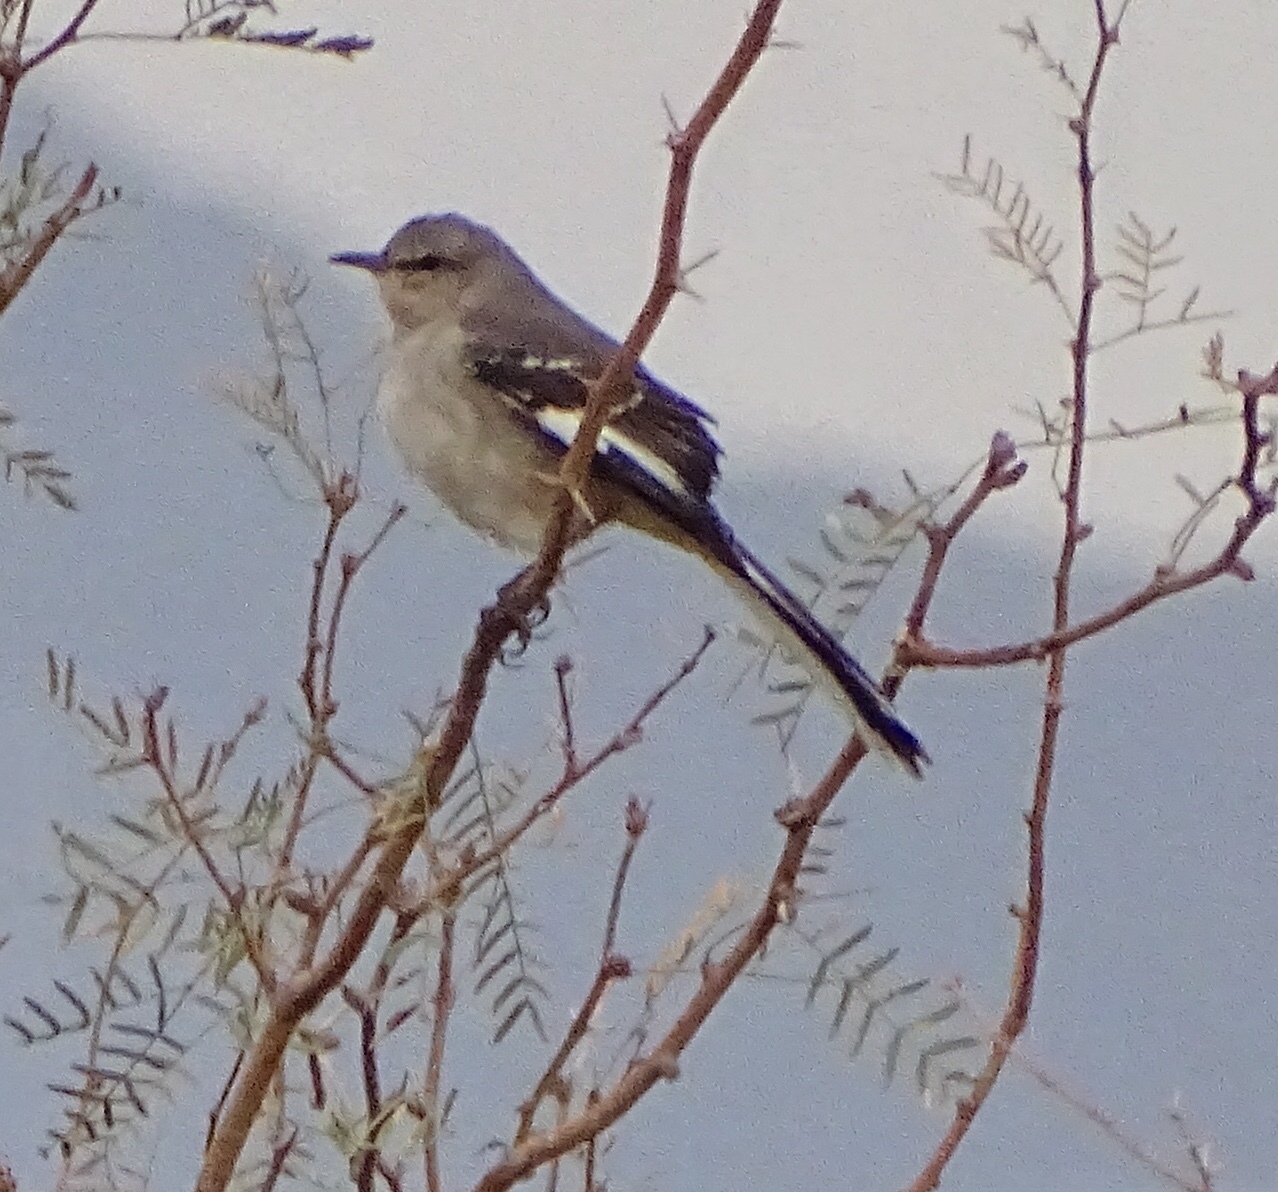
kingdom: Animalia
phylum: Chordata
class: Aves
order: Passeriformes
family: Mimidae
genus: Mimus
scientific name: Mimus polyglottos
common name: Northern mockingbird
